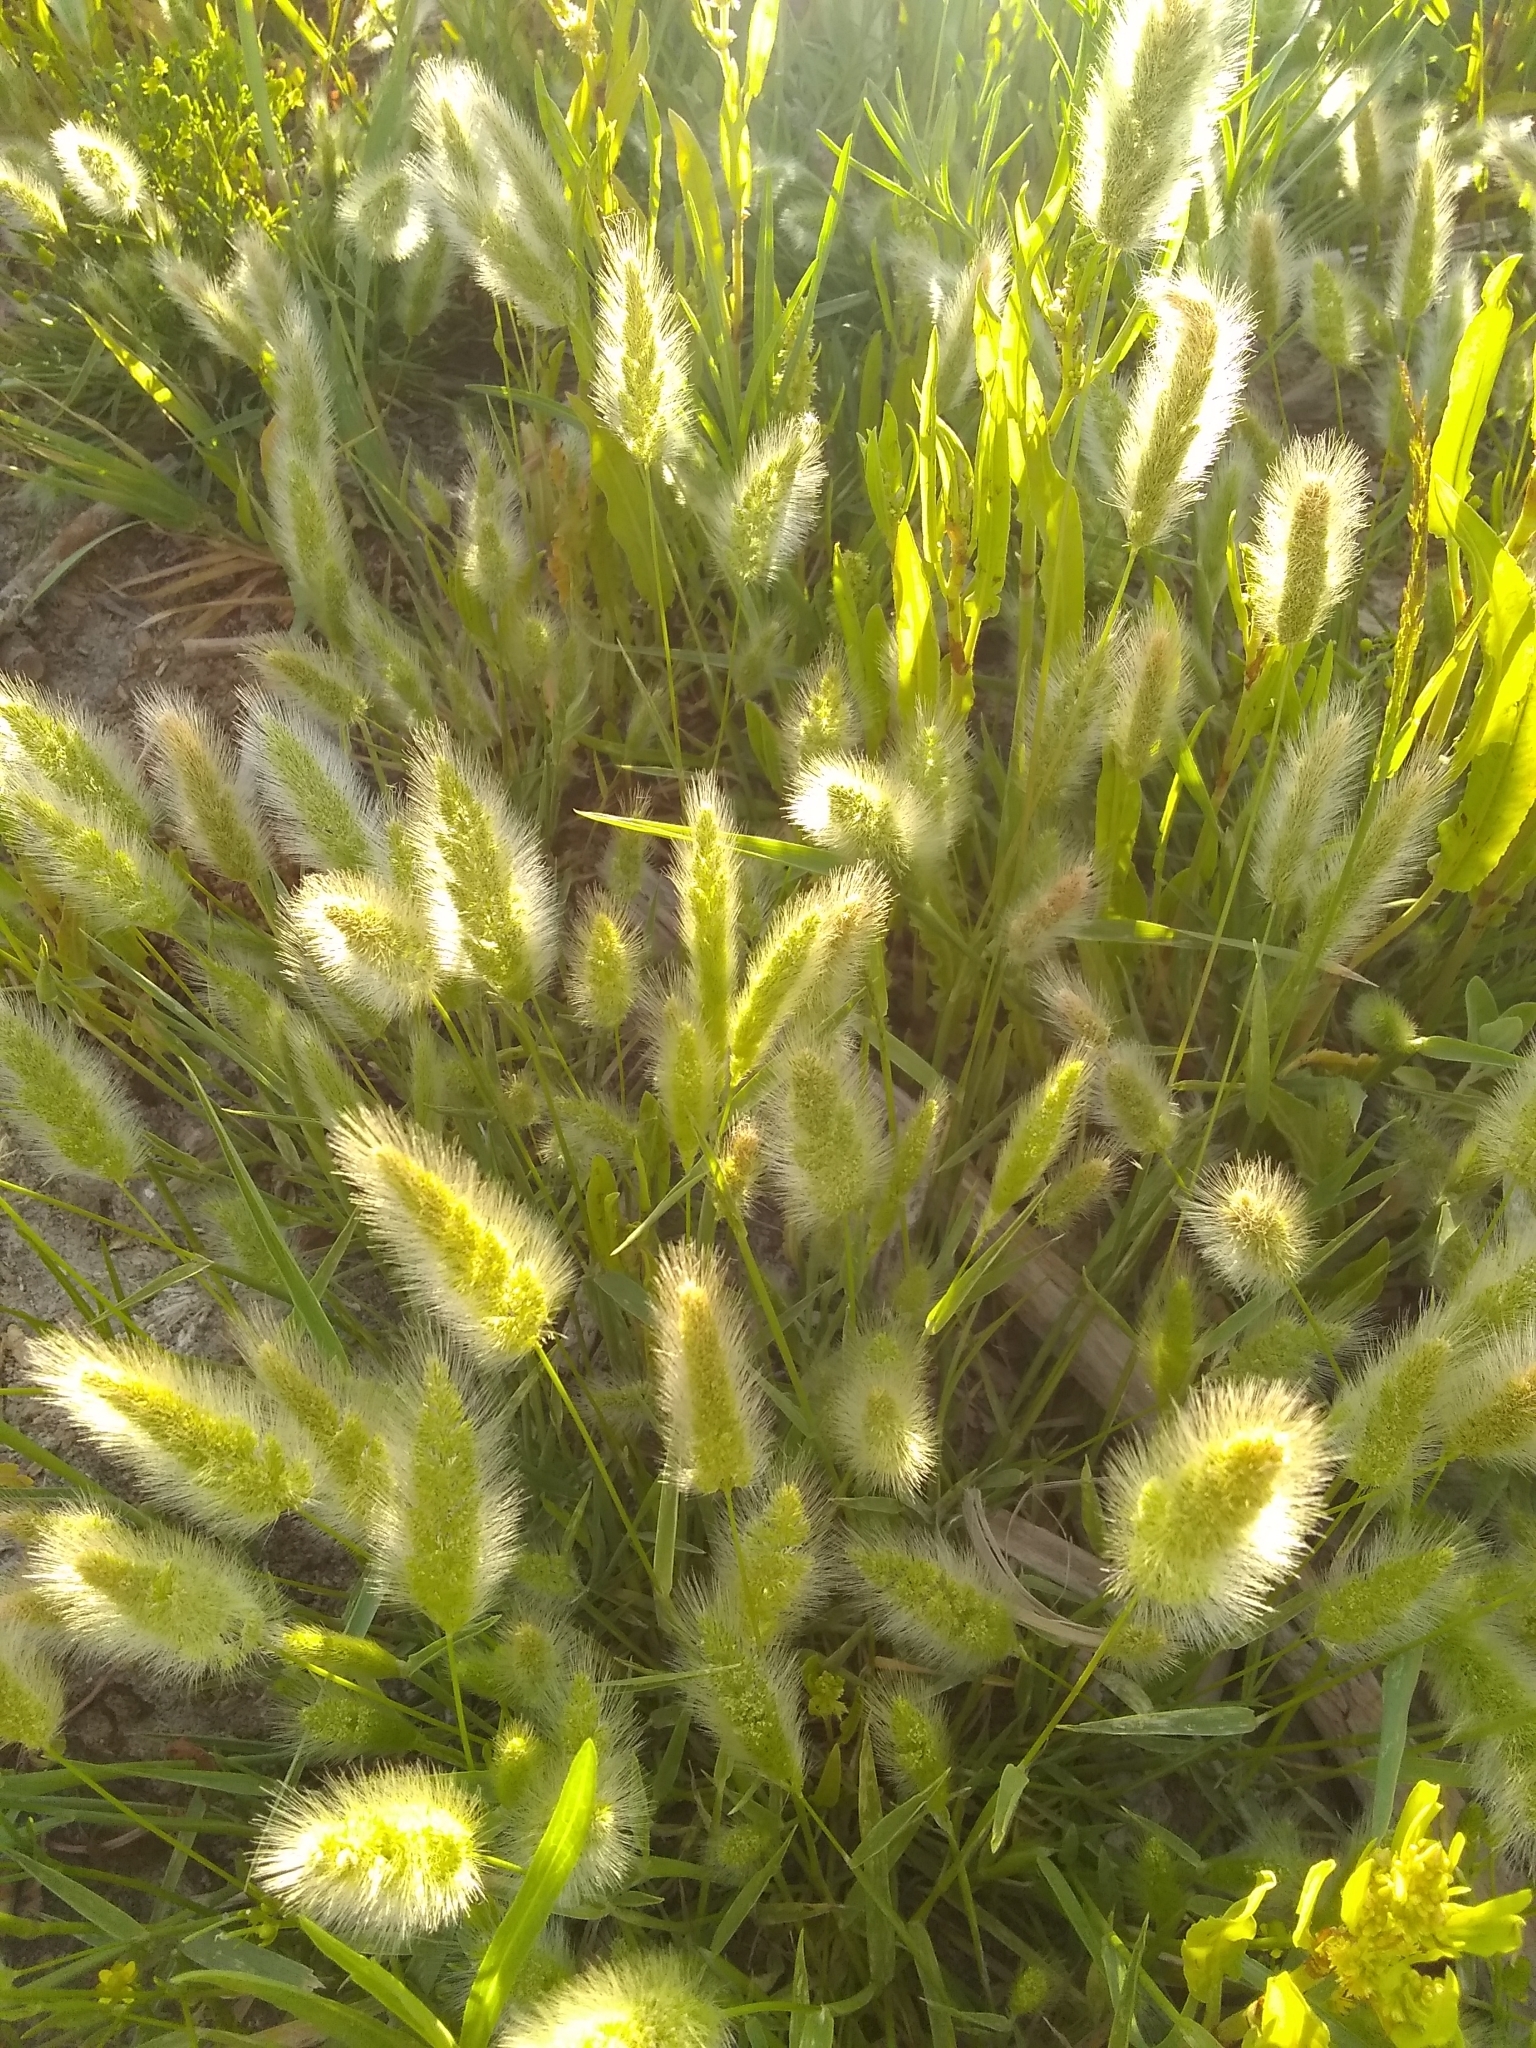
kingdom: Plantae
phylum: Tracheophyta
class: Liliopsida
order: Poales
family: Poaceae
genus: Polypogon
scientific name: Polypogon monspeliensis
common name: Annual rabbitsfoot grass
